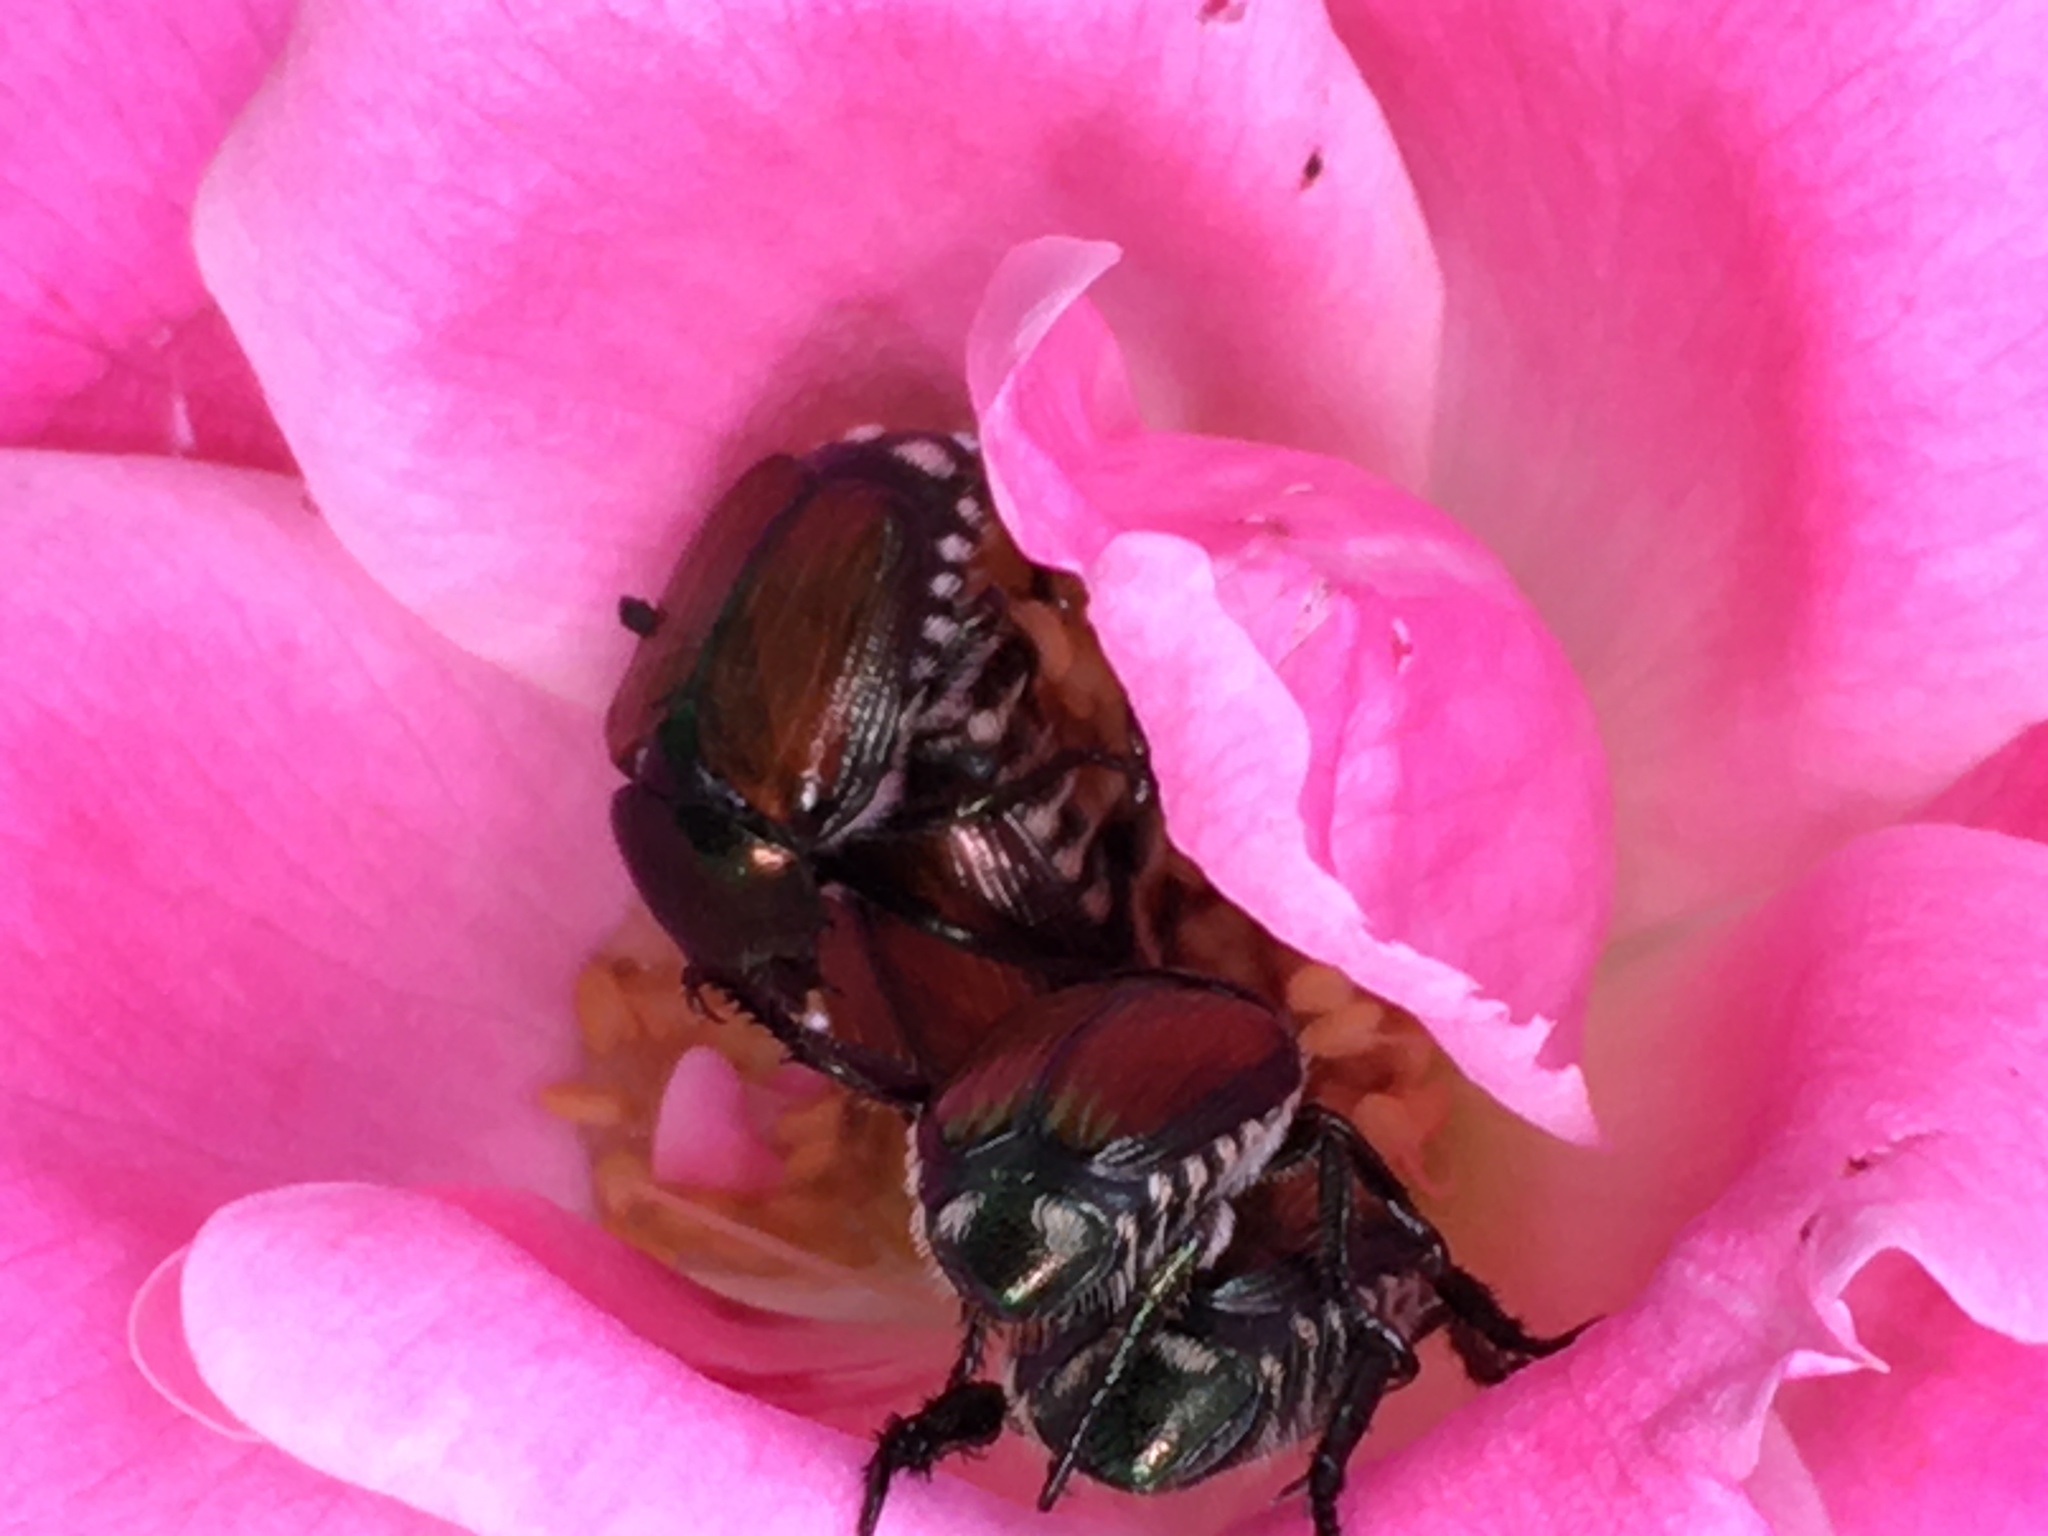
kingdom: Animalia
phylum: Arthropoda
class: Insecta
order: Coleoptera
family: Scarabaeidae
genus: Popillia
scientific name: Popillia japonica
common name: Japanese beetle
